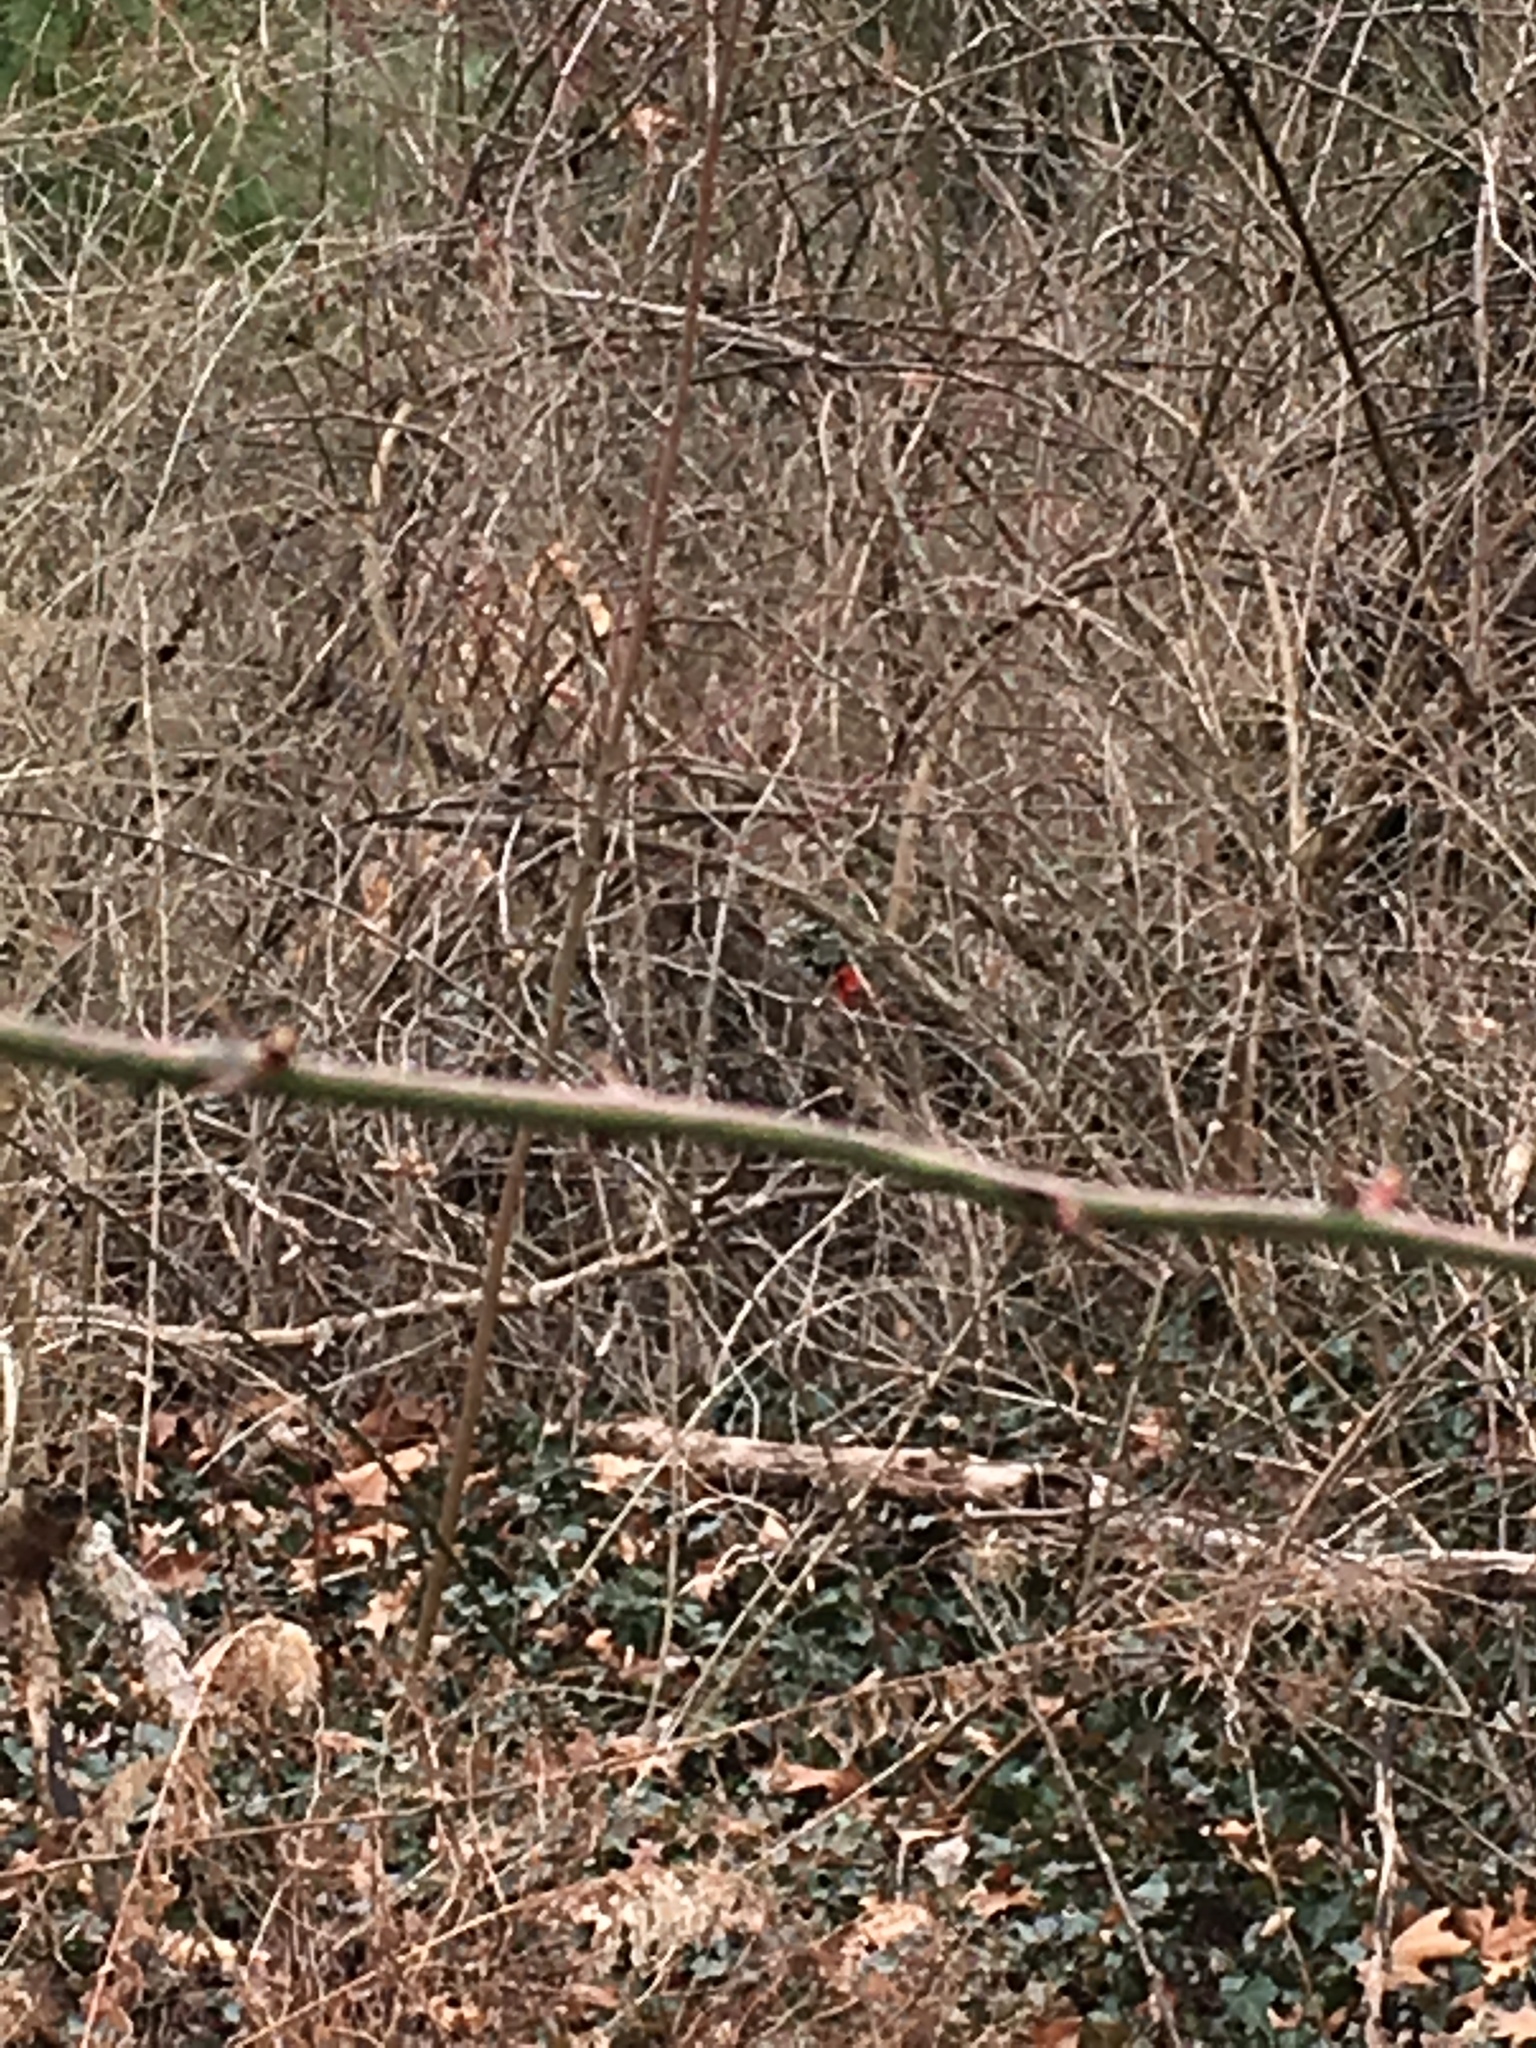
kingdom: Animalia
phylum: Chordata
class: Aves
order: Passeriformes
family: Cardinalidae
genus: Cardinalis
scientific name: Cardinalis cardinalis
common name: Northern cardinal
